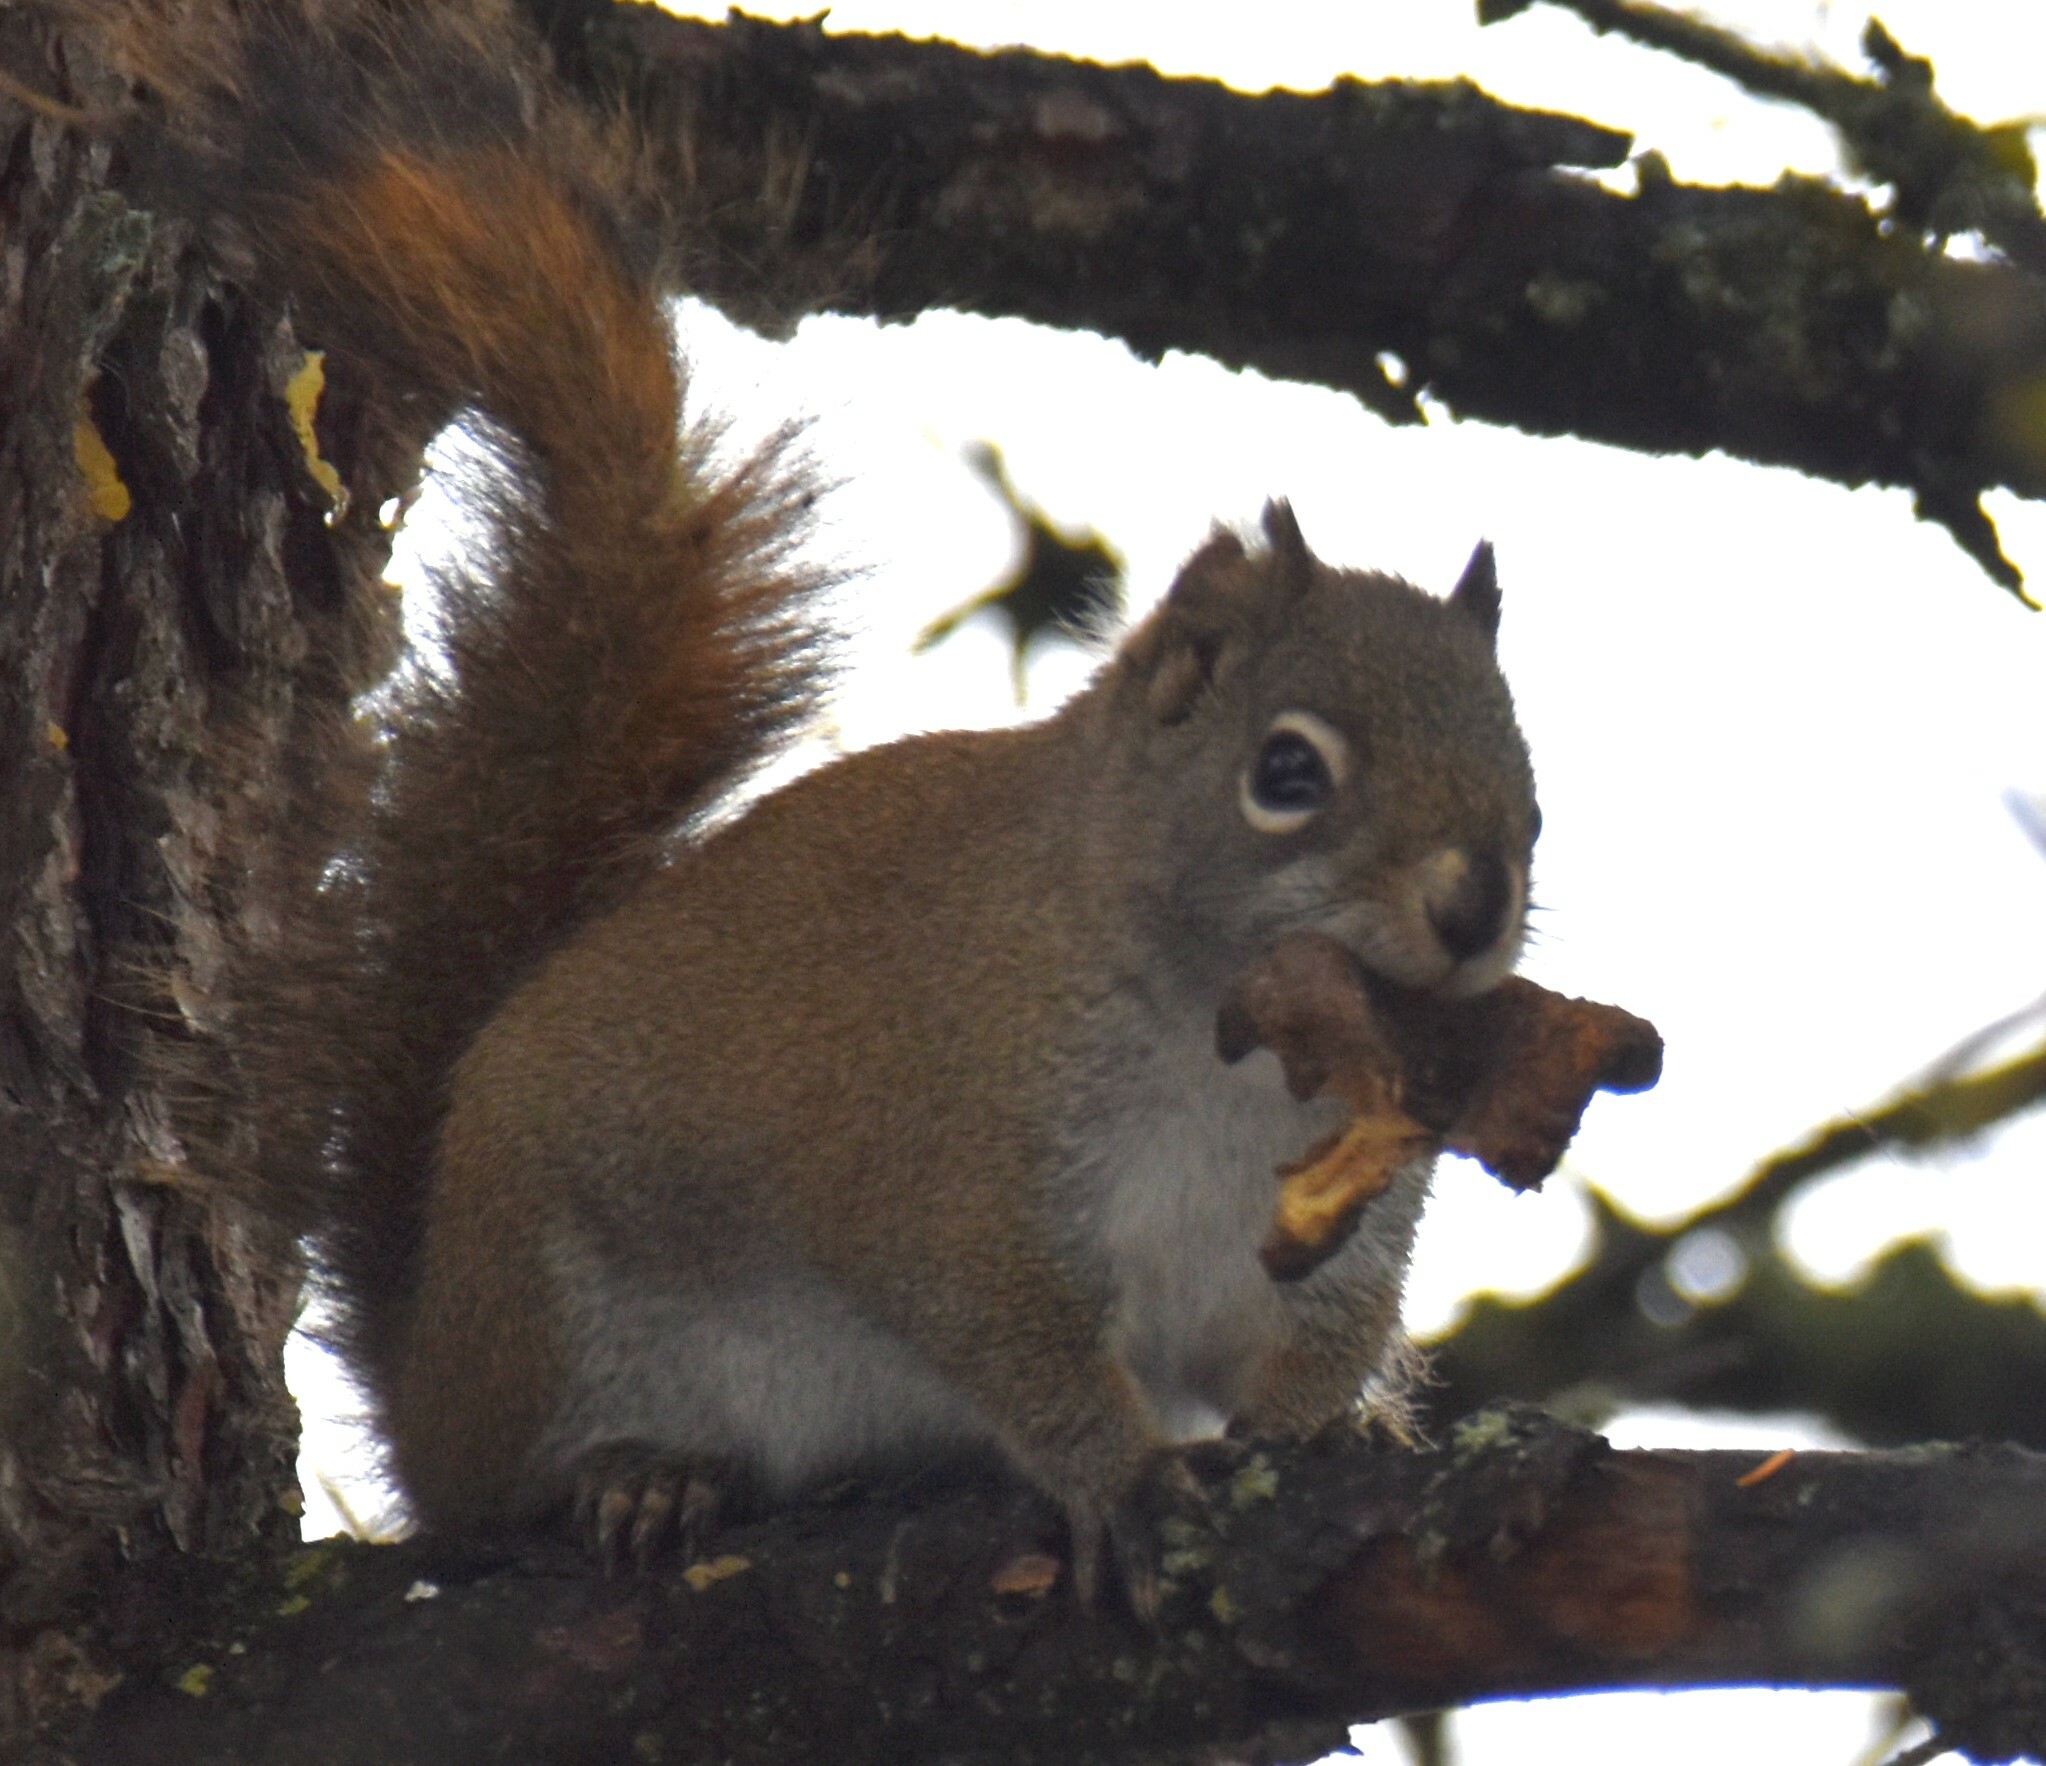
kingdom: Animalia
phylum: Chordata
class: Mammalia
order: Rodentia
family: Sciuridae
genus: Tamiasciurus
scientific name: Tamiasciurus hudsonicus
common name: Red squirrel
